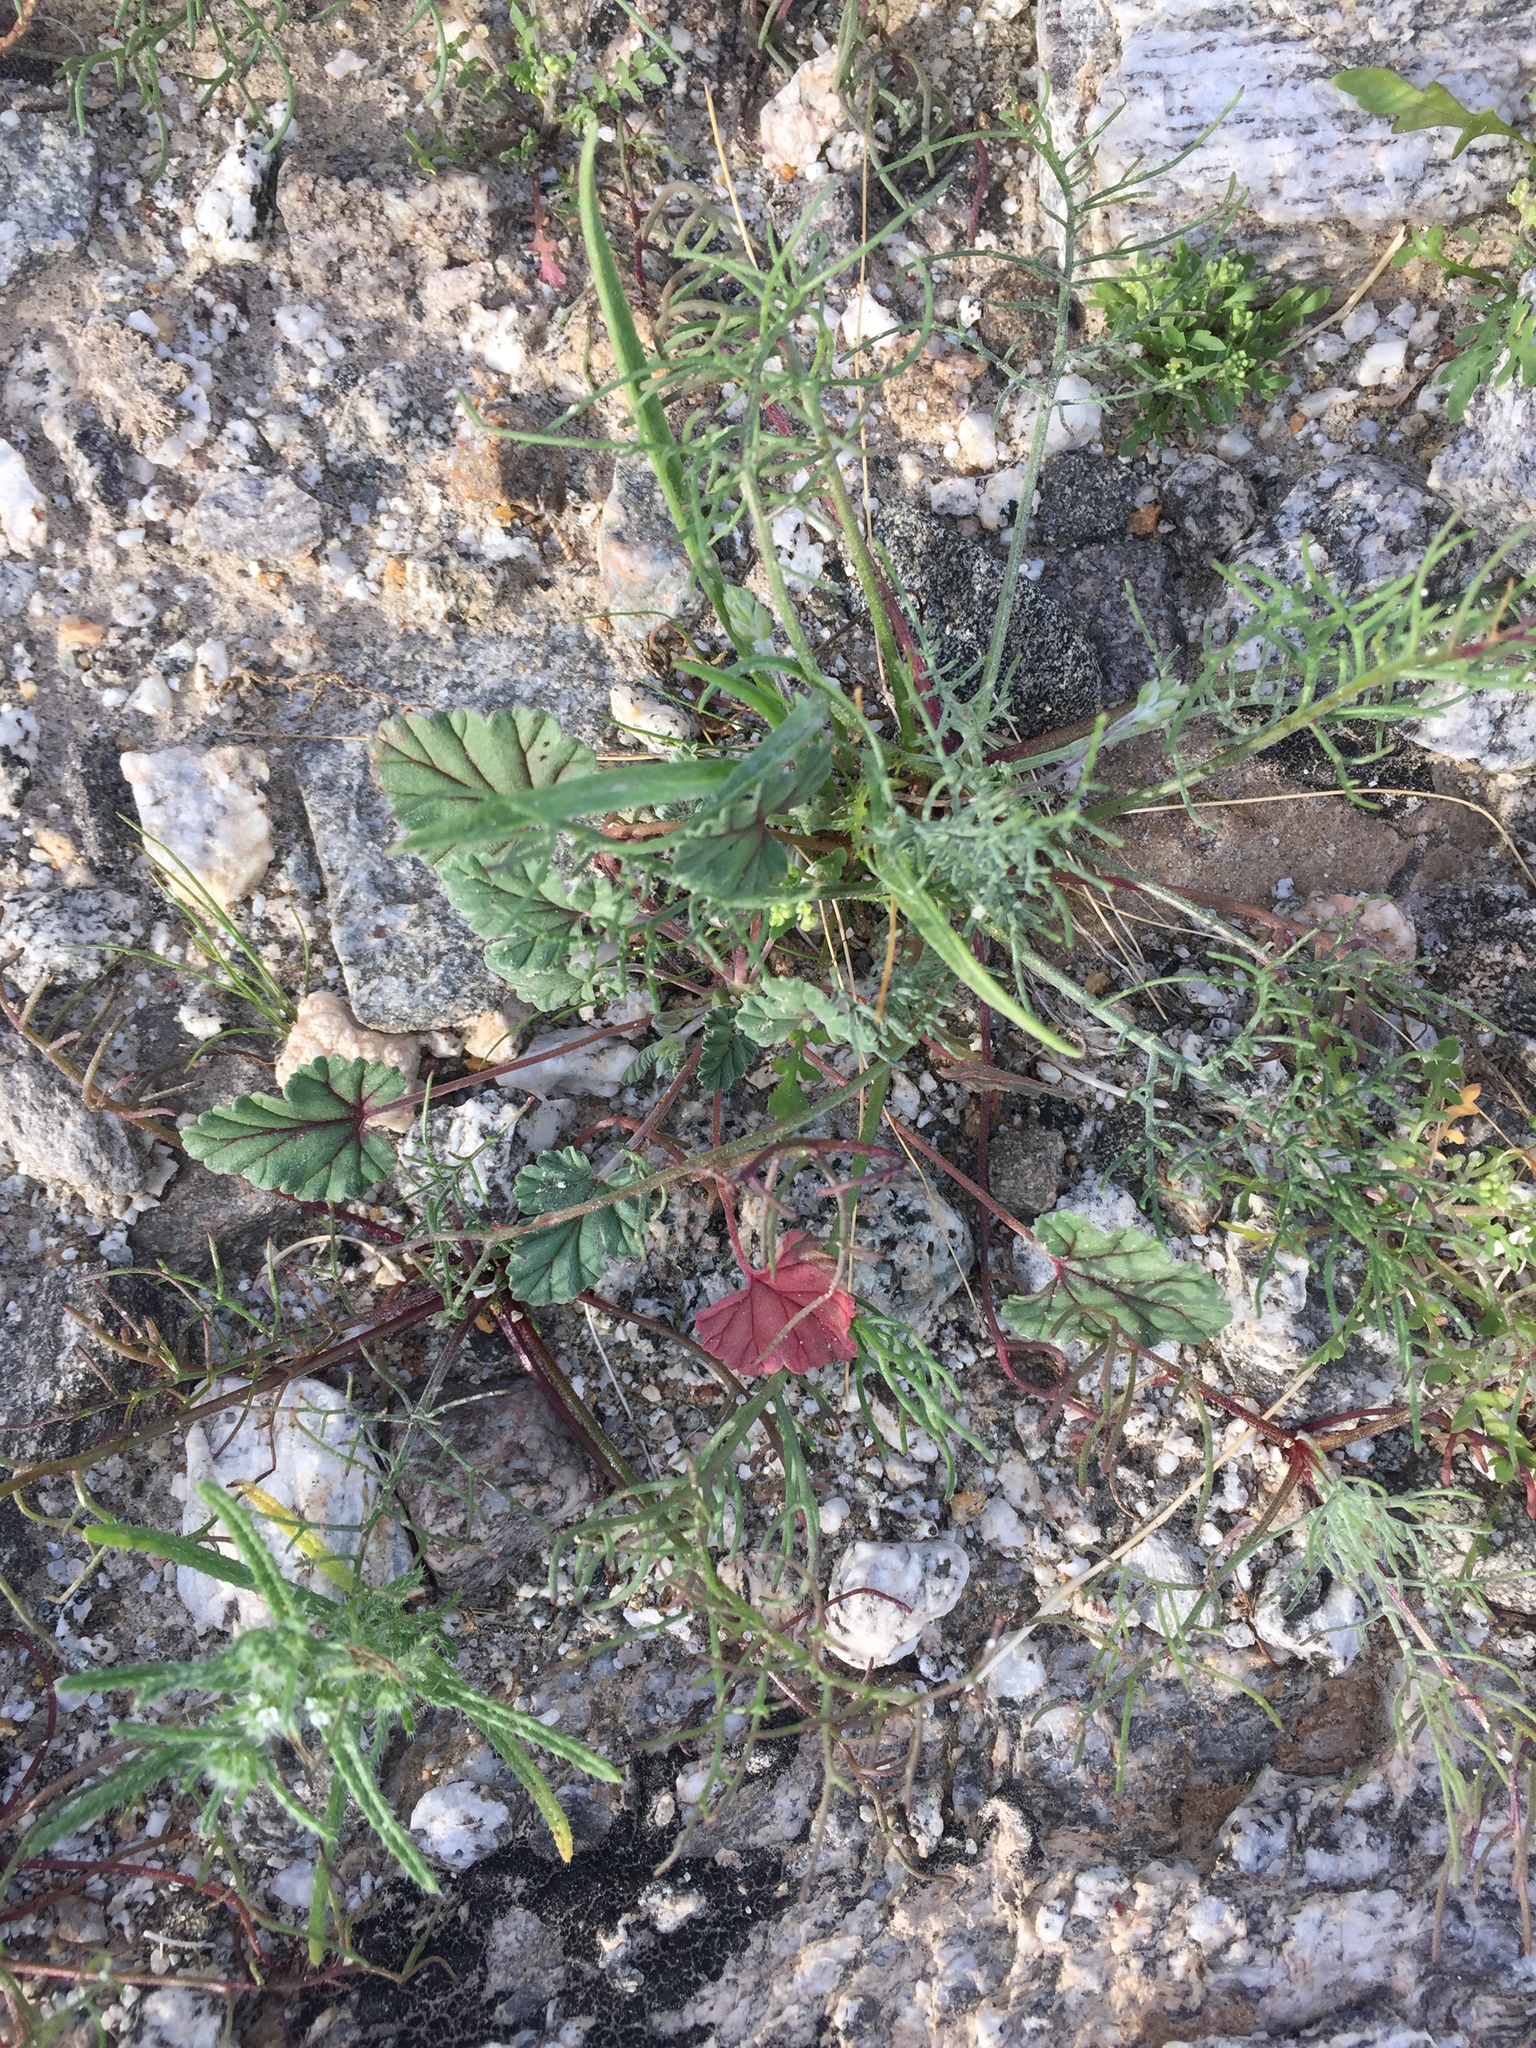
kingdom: Plantae
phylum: Tracheophyta
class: Magnoliopsida
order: Geraniales
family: Geraniaceae
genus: Erodium
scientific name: Erodium texanum
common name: Texas stork's-bill
